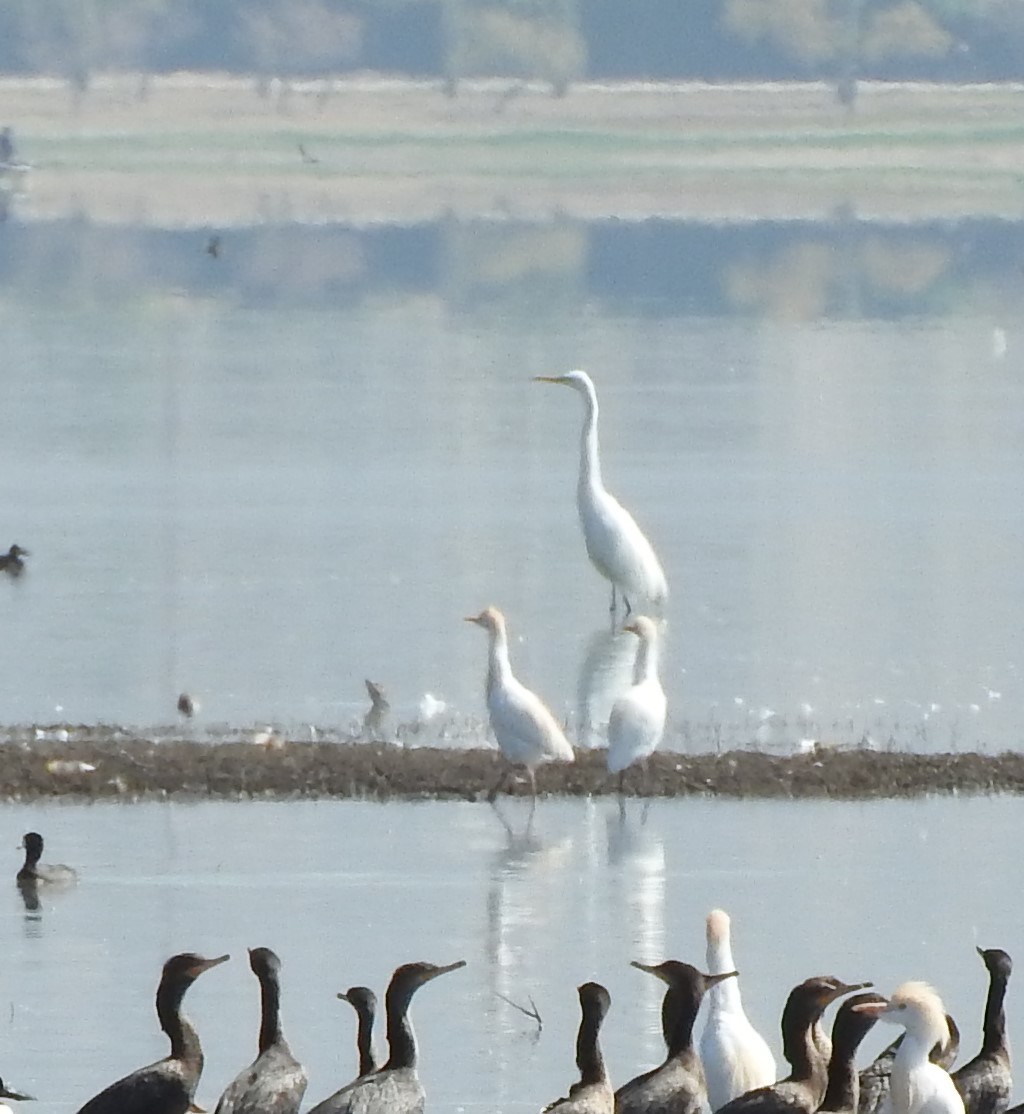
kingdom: Animalia
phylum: Chordata
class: Aves
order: Pelecaniformes
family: Ardeidae
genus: Ardea
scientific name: Ardea alba
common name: Great egret
